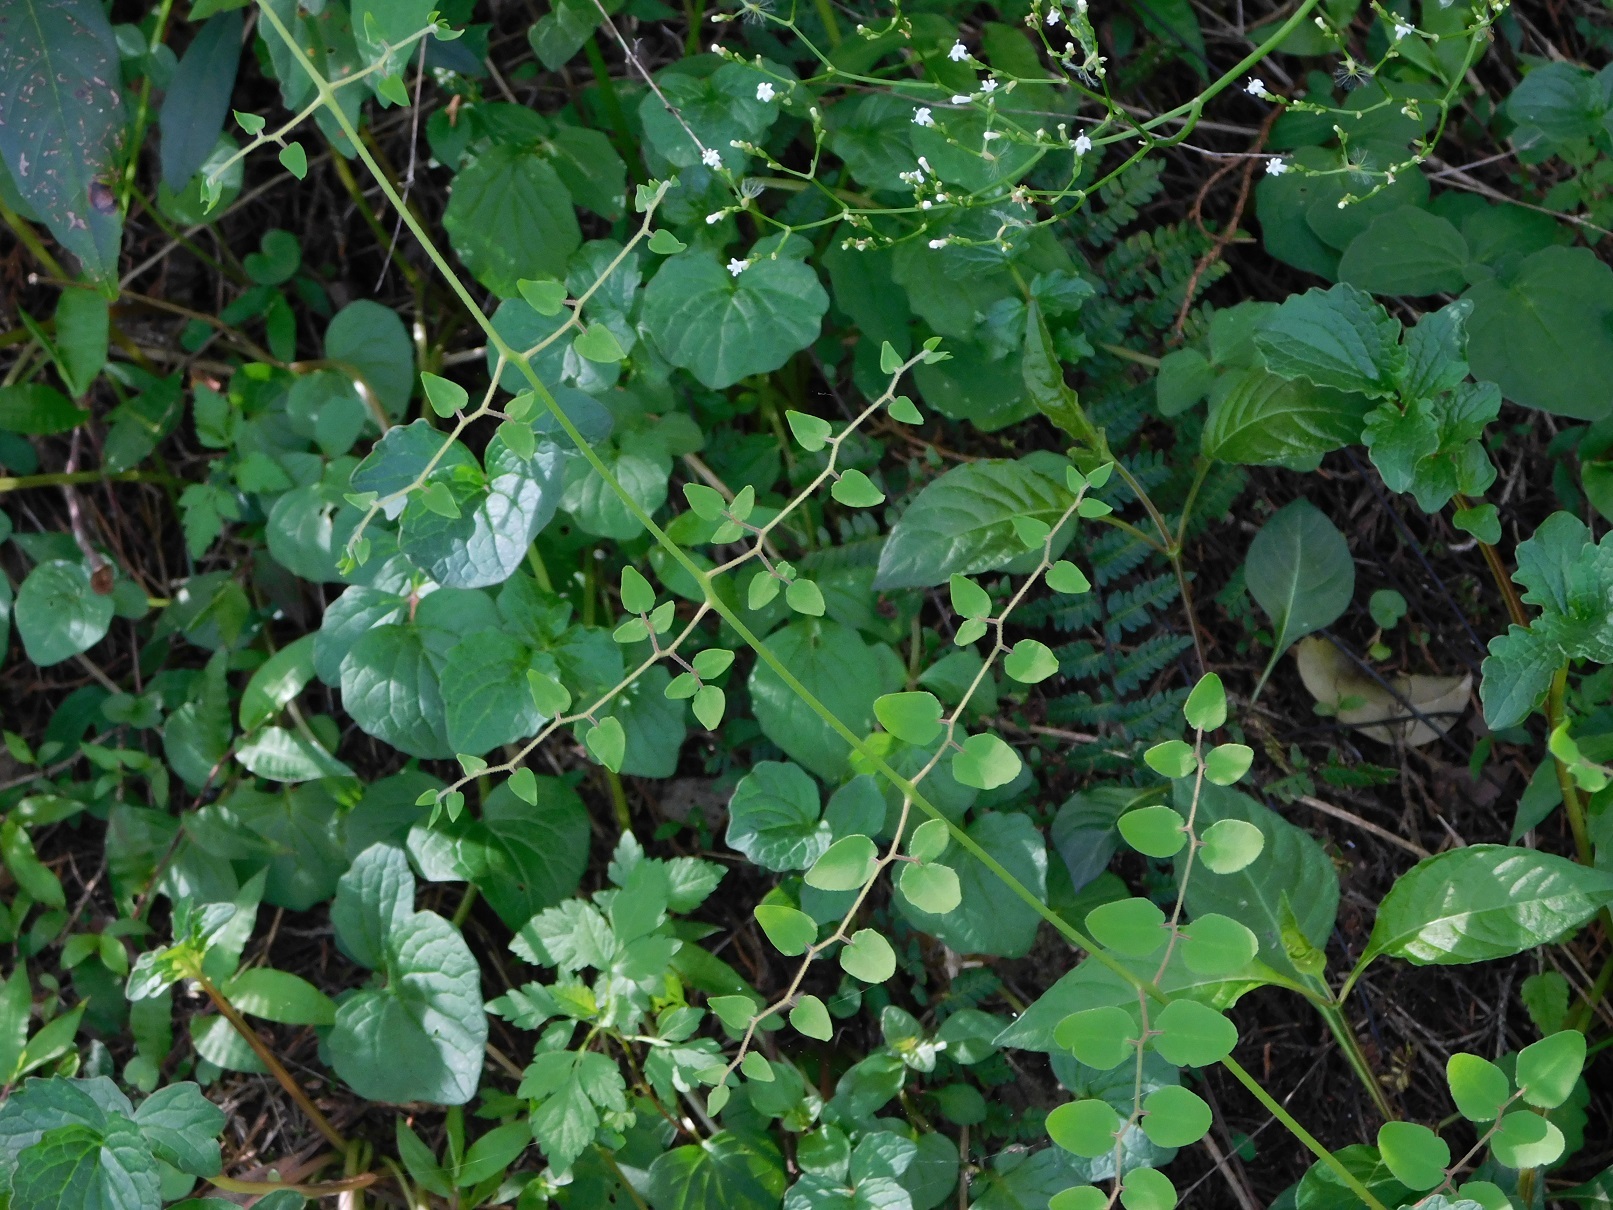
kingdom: Plantae
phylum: Tracheophyta
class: Polypodiopsida
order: Polypodiales
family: Pteridaceae
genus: Pellaea
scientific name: Pellaea ovata
